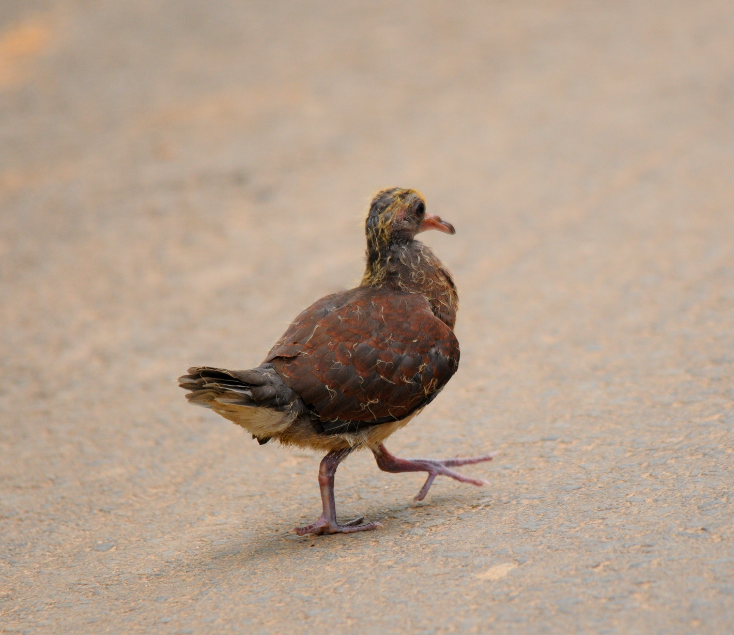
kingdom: Animalia
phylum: Chordata
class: Aves
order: Columbiformes
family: Columbidae
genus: Nesoenas
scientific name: Nesoenas picturatus
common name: Malagasy turtle dove
